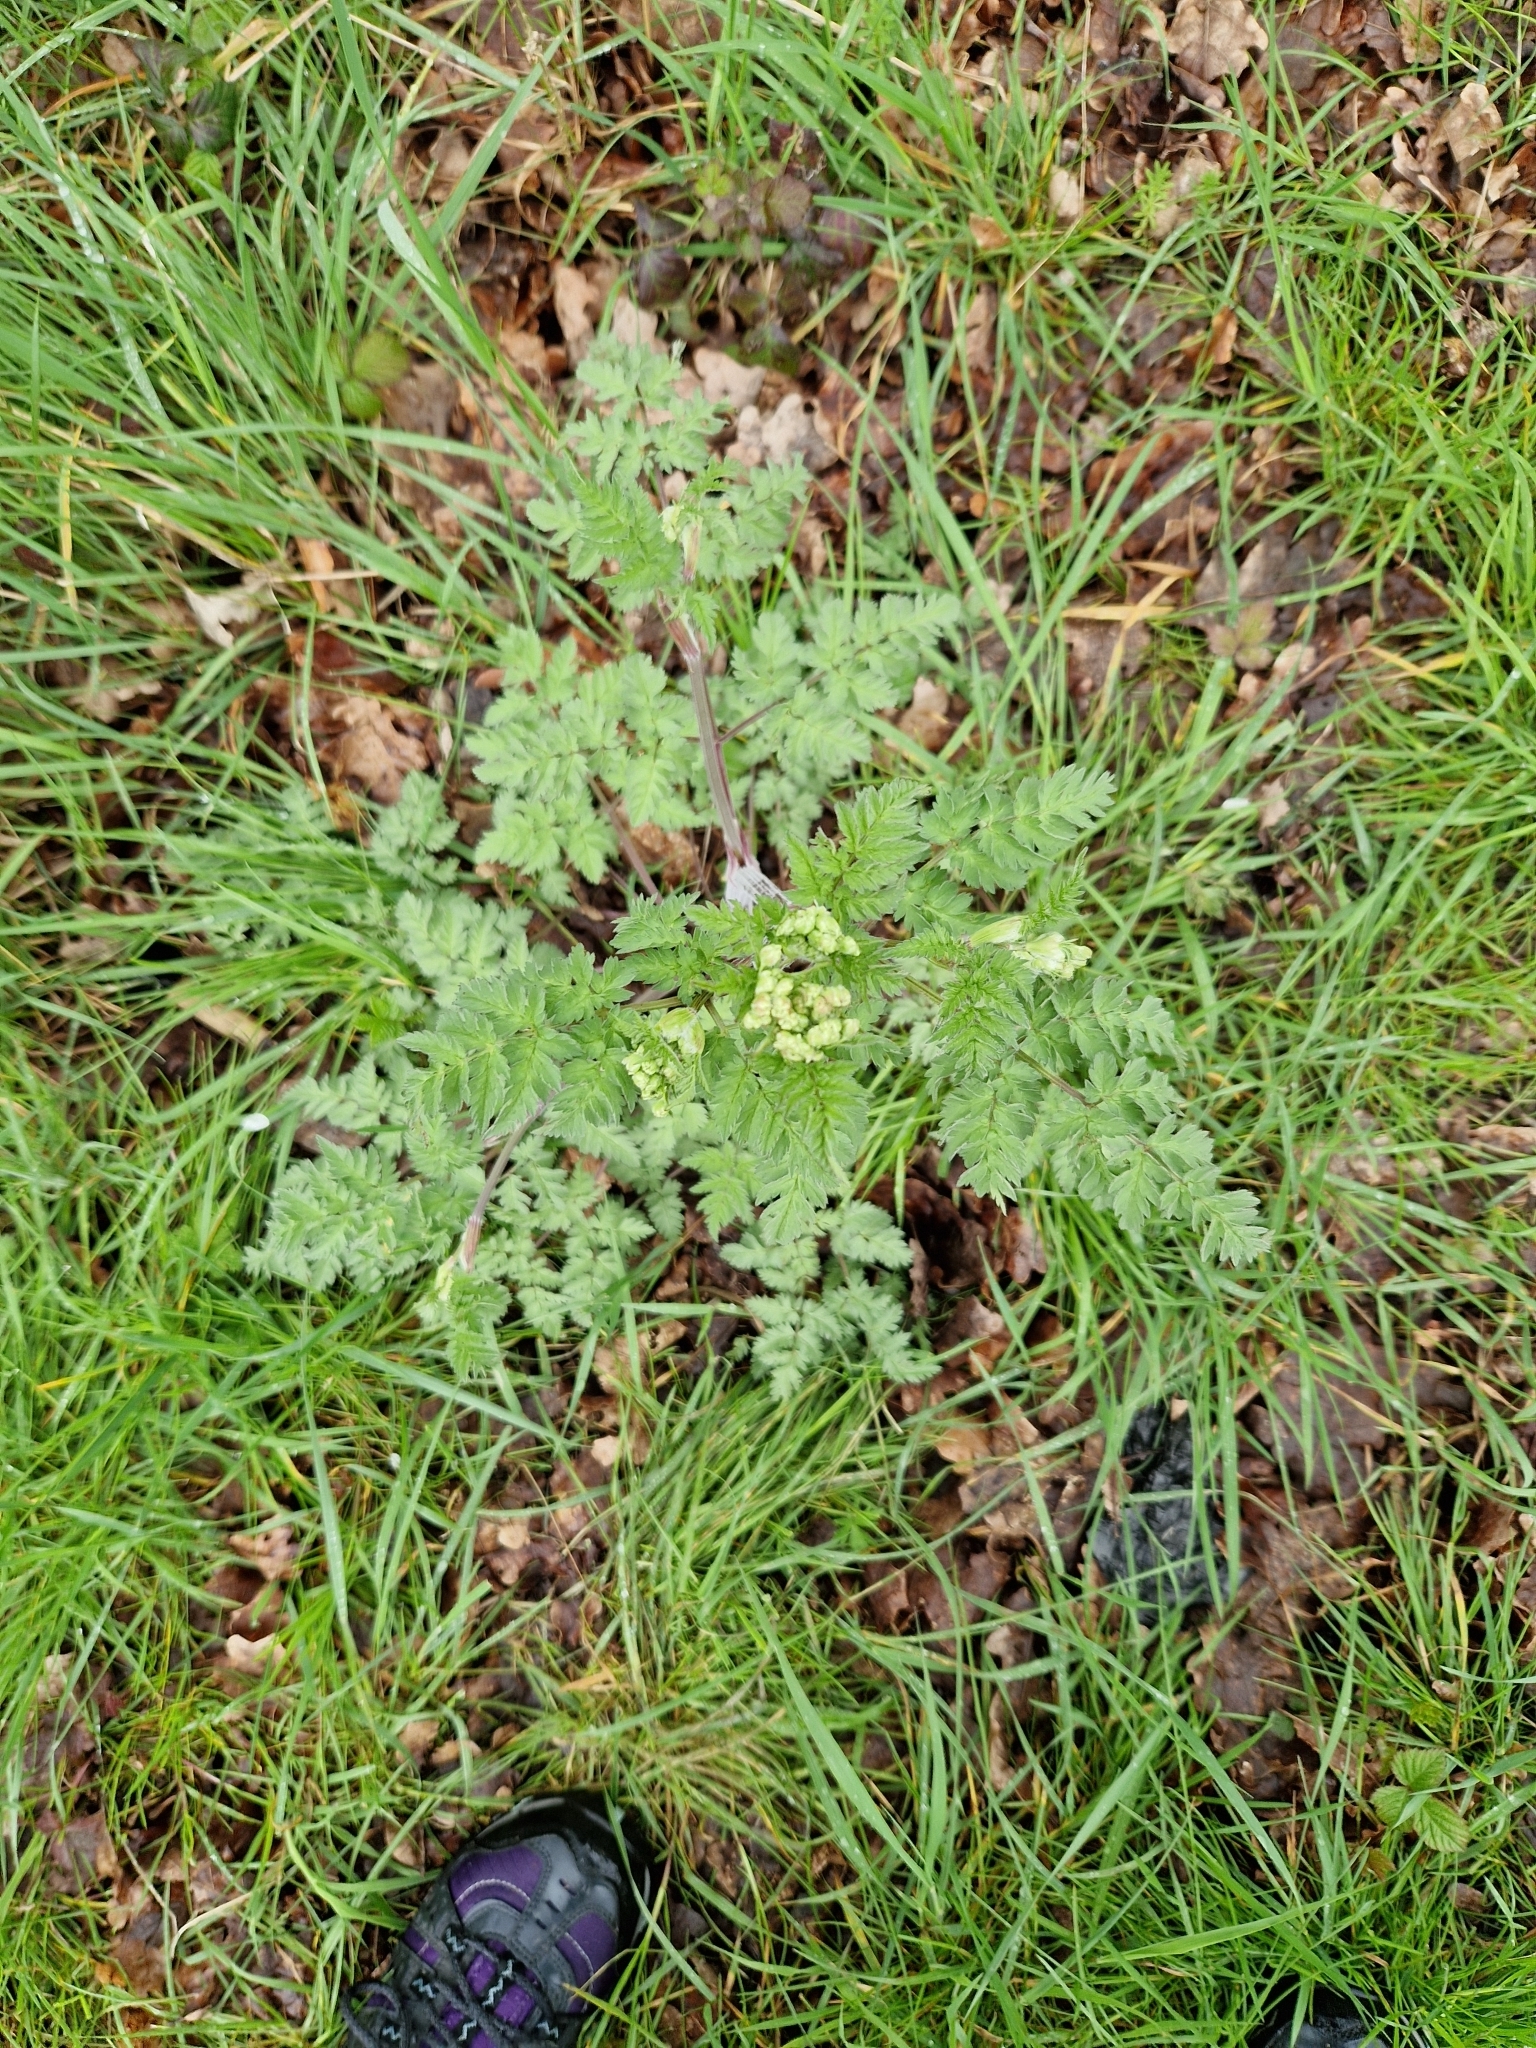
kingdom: Plantae
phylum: Tracheophyta
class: Magnoliopsida
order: Apiales
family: Apiaceae
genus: Anthriscus
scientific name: Anthriscus sylvestris
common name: Cow parsley
